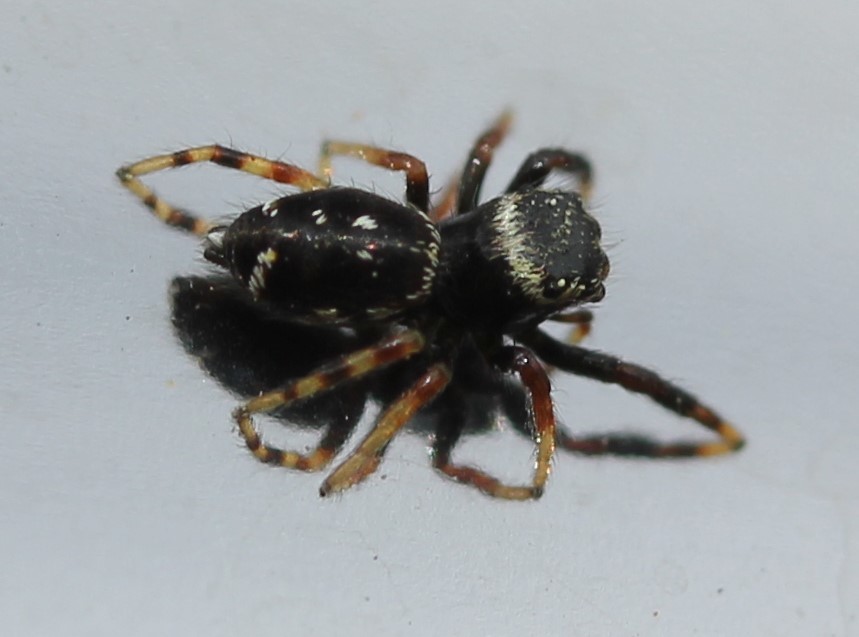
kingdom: Animalia
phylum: Arthropoda
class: Arachnida
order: Araneae
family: Salticidae
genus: Paraphidippus
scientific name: Paraphidippus aurantius
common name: Jumping spiders
